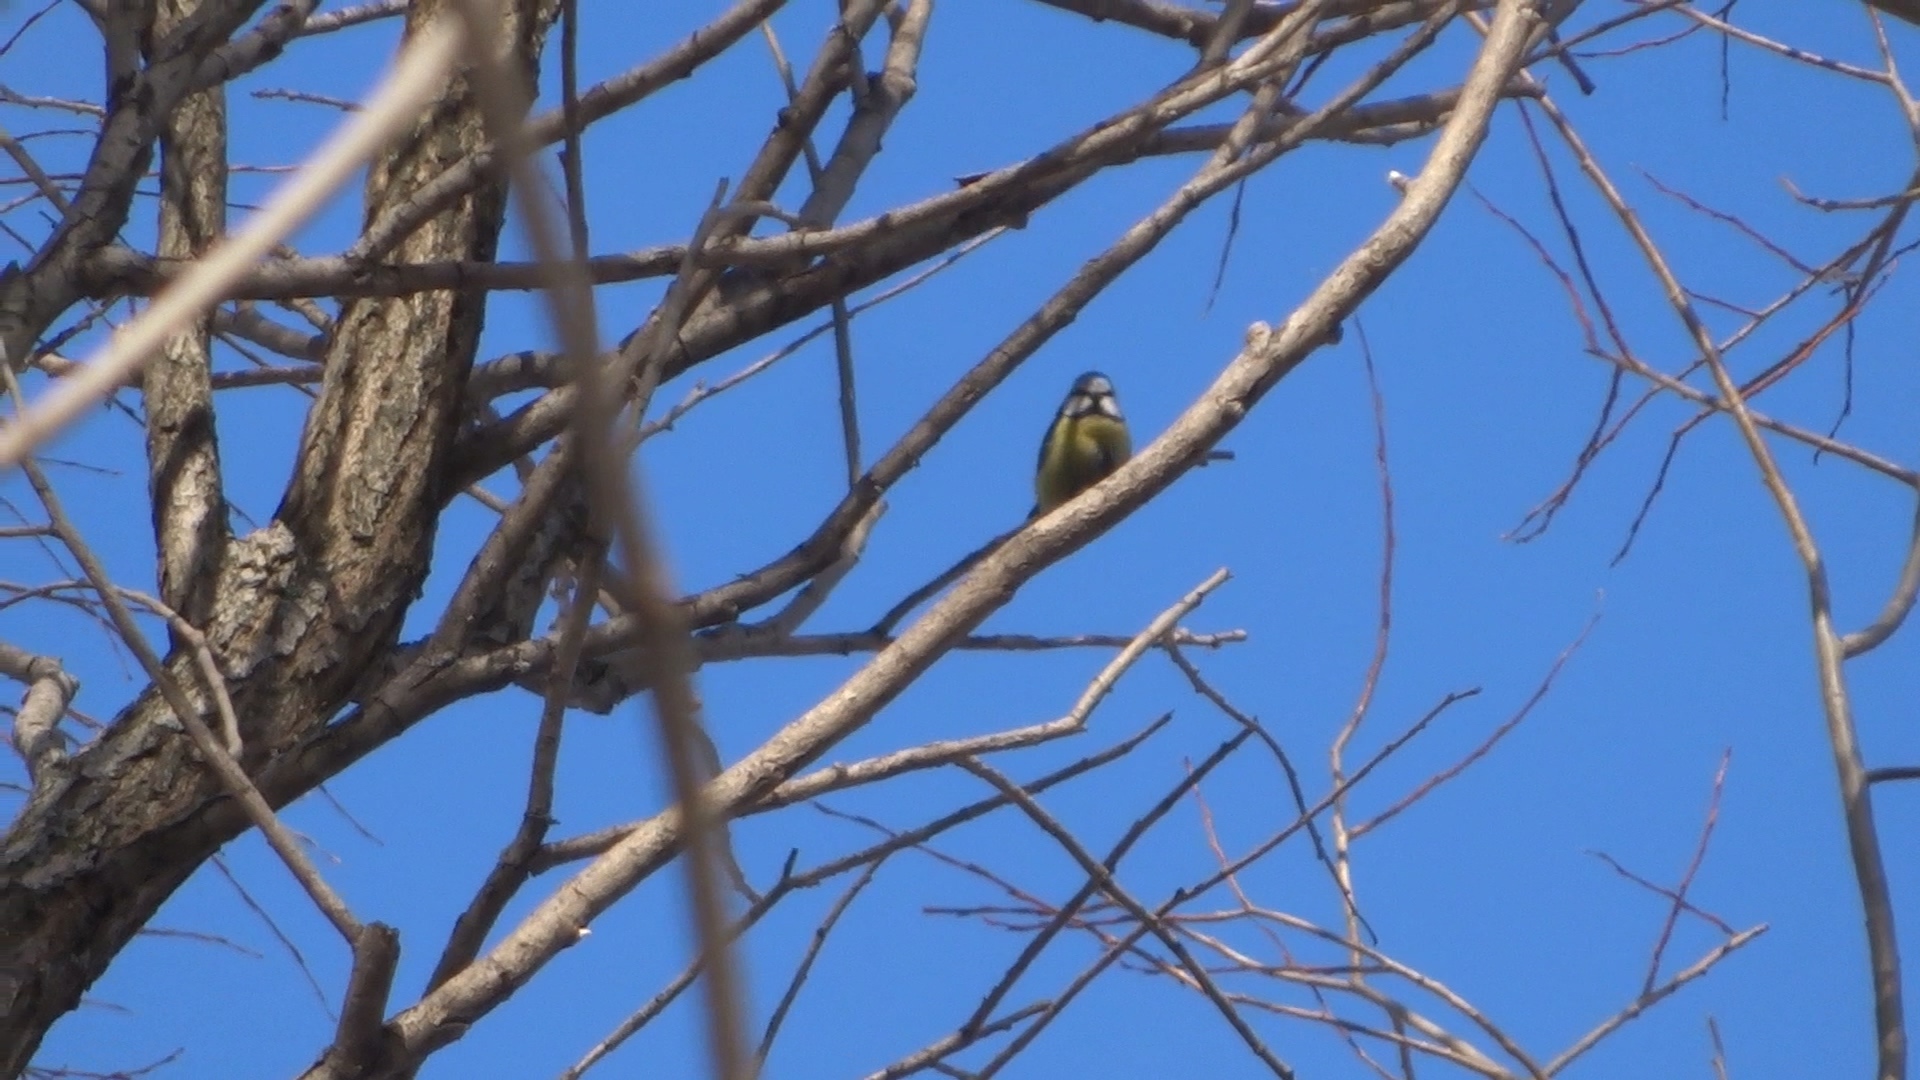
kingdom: Animalia
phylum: Chordata
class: Aves
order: Passeriformes
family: Paridae
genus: Cyanistes
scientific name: Cyanistes caeruleus
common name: Eurasian blue tit
